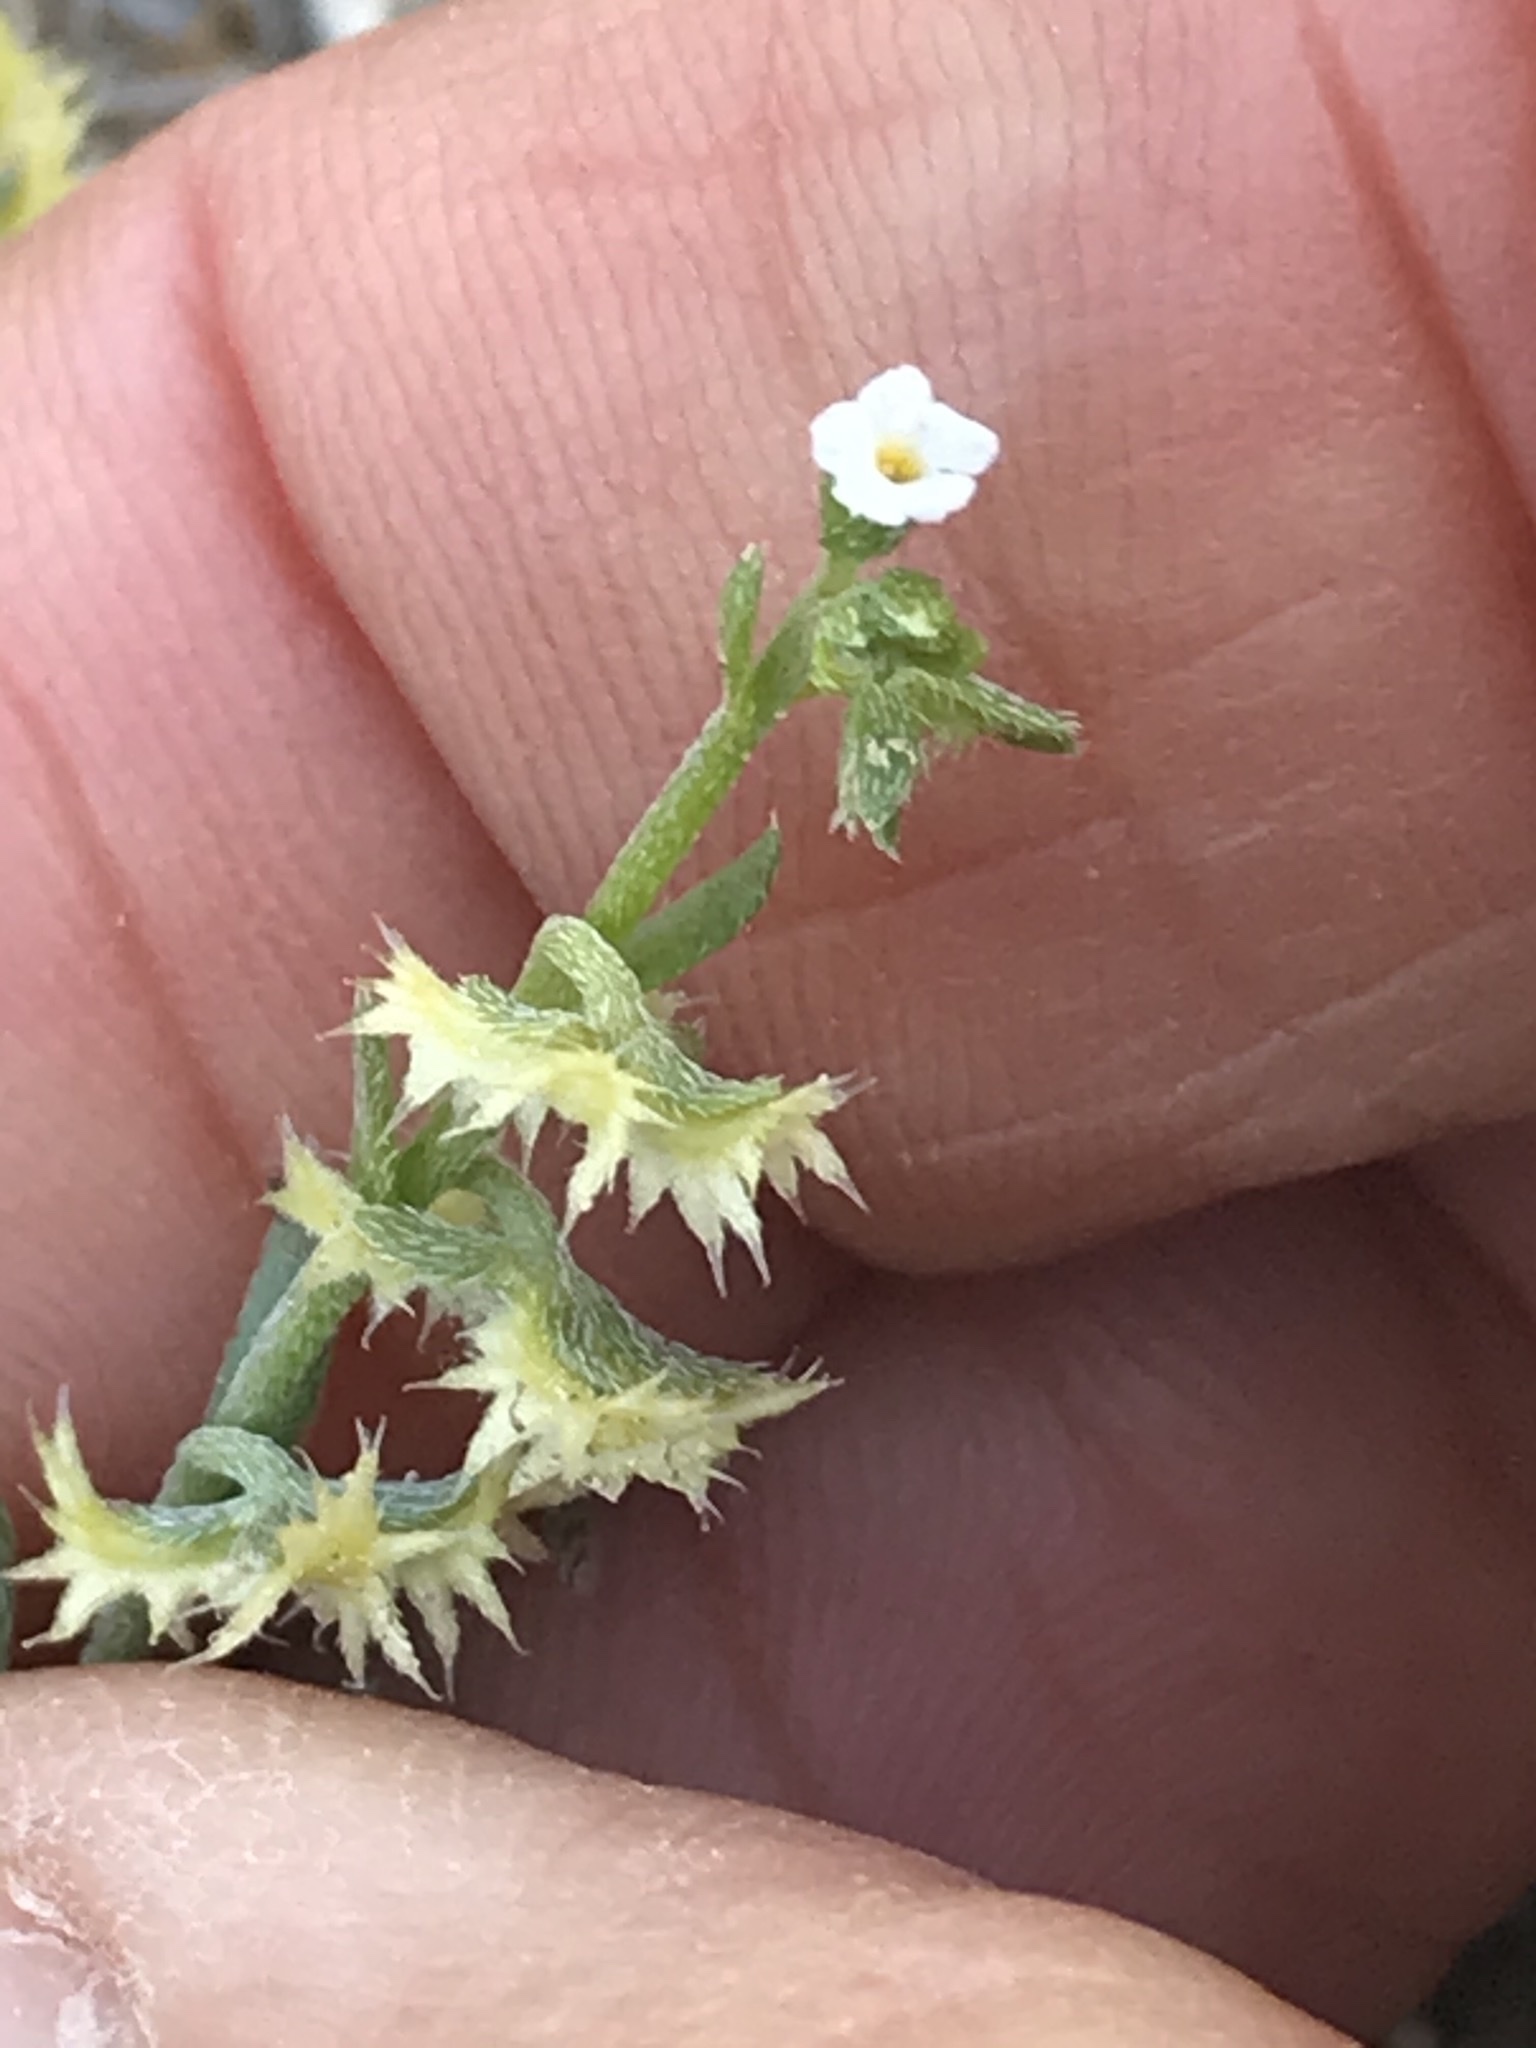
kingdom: Plantae
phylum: Tracheophyta
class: Magnoliopsida
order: Boraginales
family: Boraginaceae
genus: Pectocarya
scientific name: Pectocarya platycarpa
